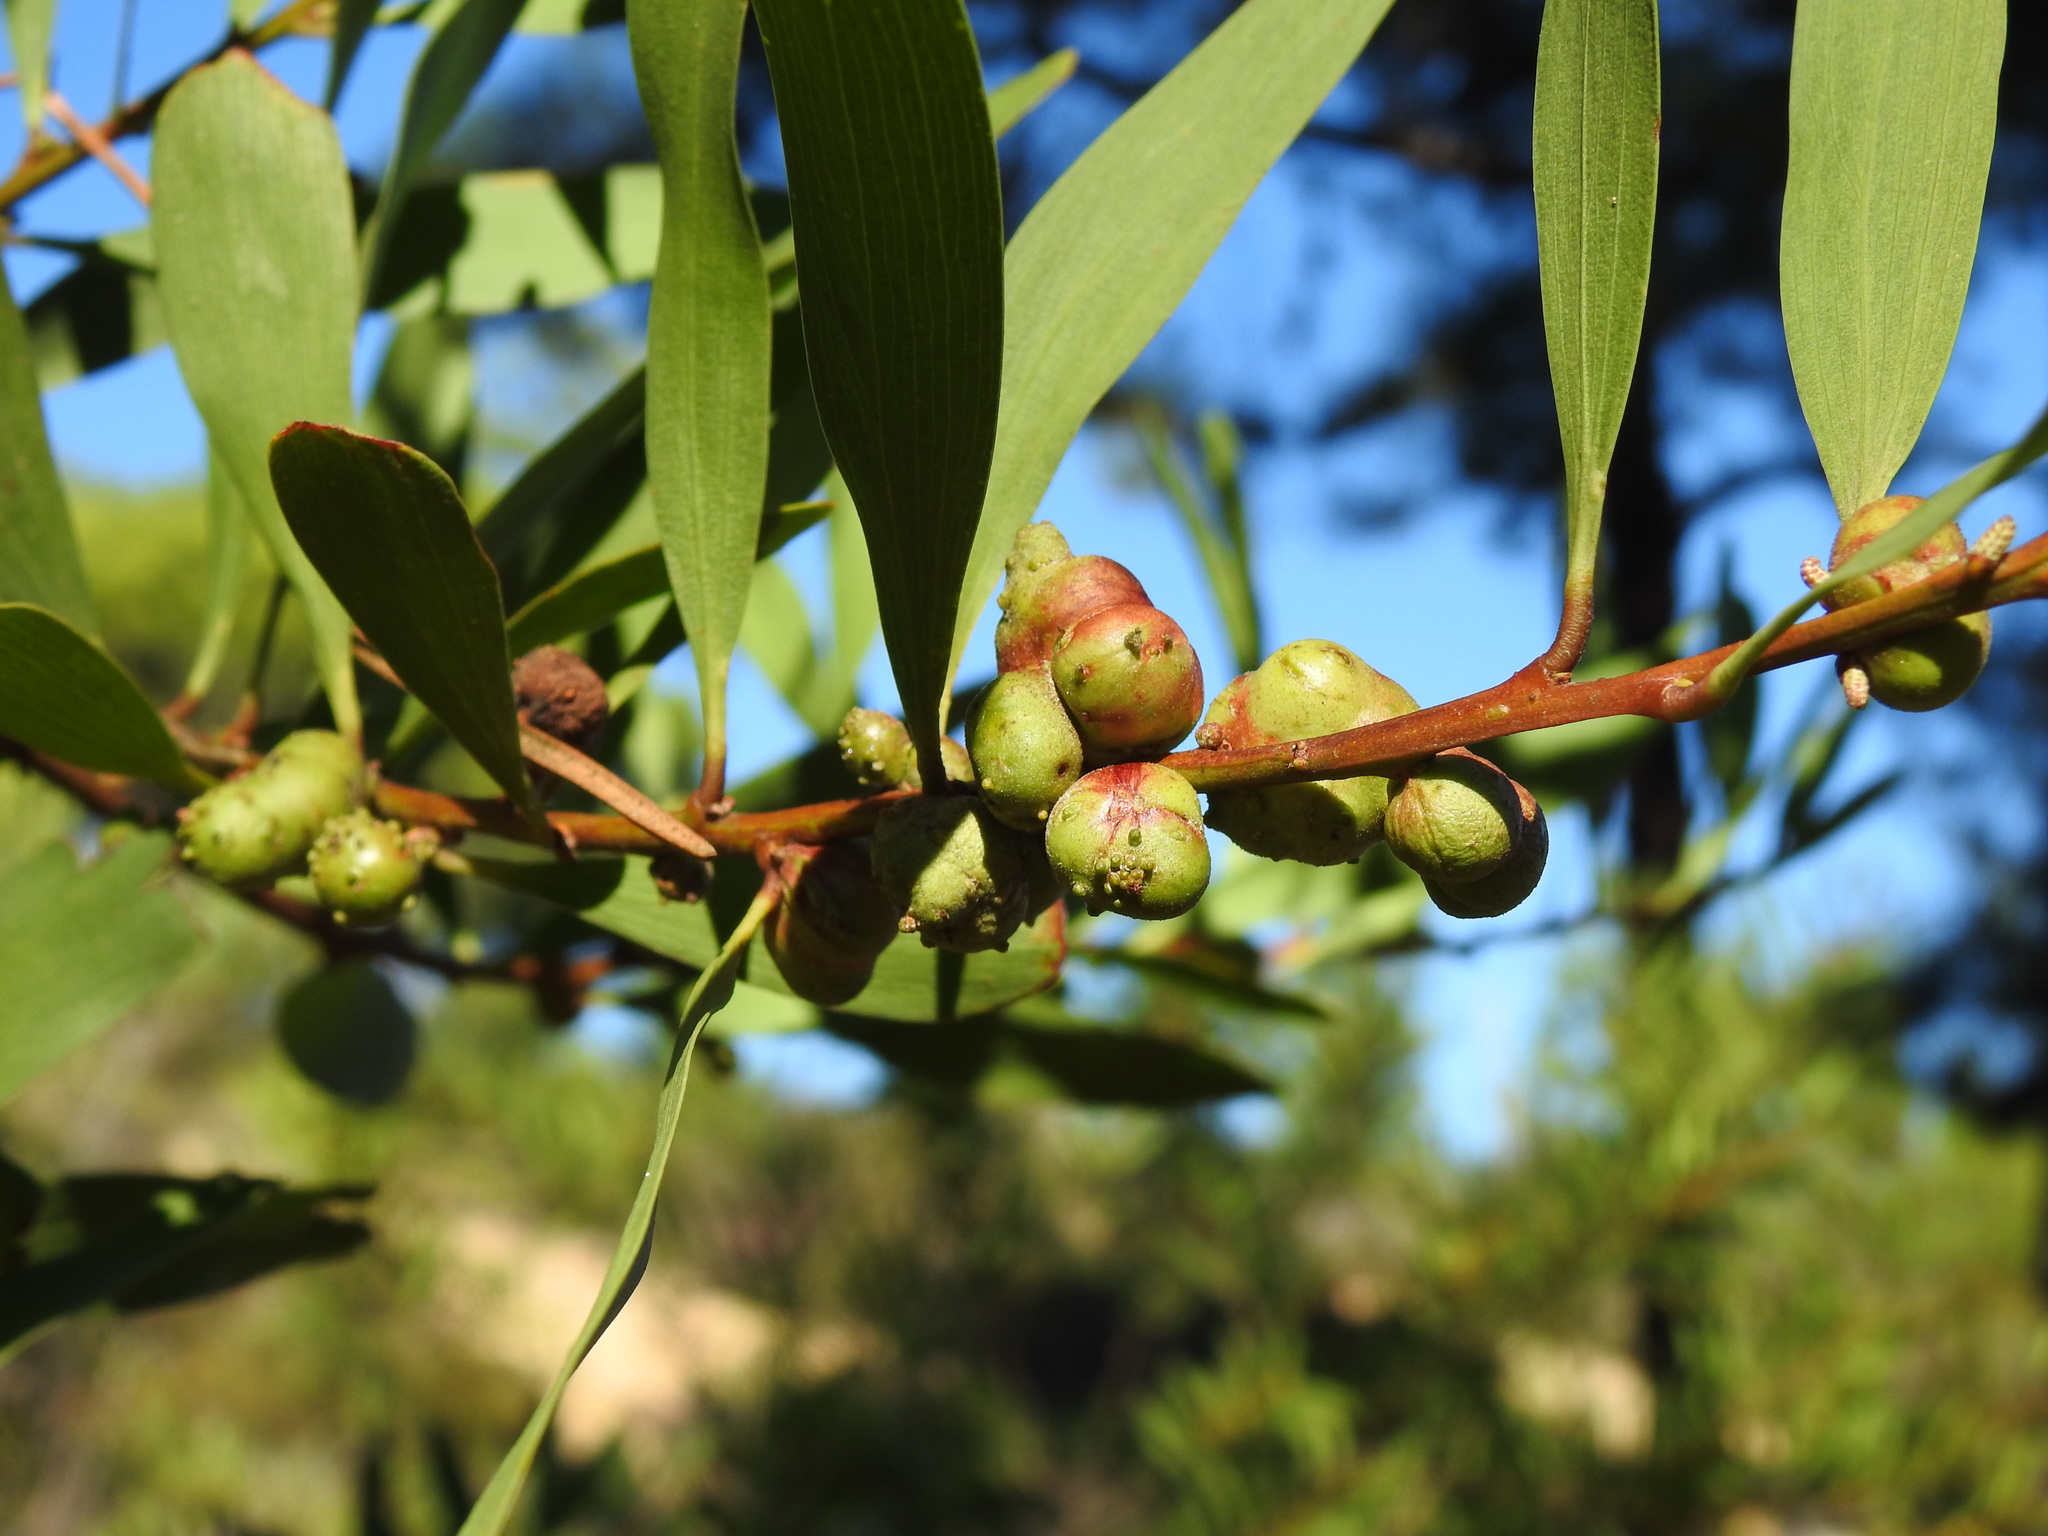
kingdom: Animalia
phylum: Arthropoda
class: Insecta
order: Hymenoptera
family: Pteromalidae
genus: Trichilogaster
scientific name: Trichilogaster acaciaelongifoliae
